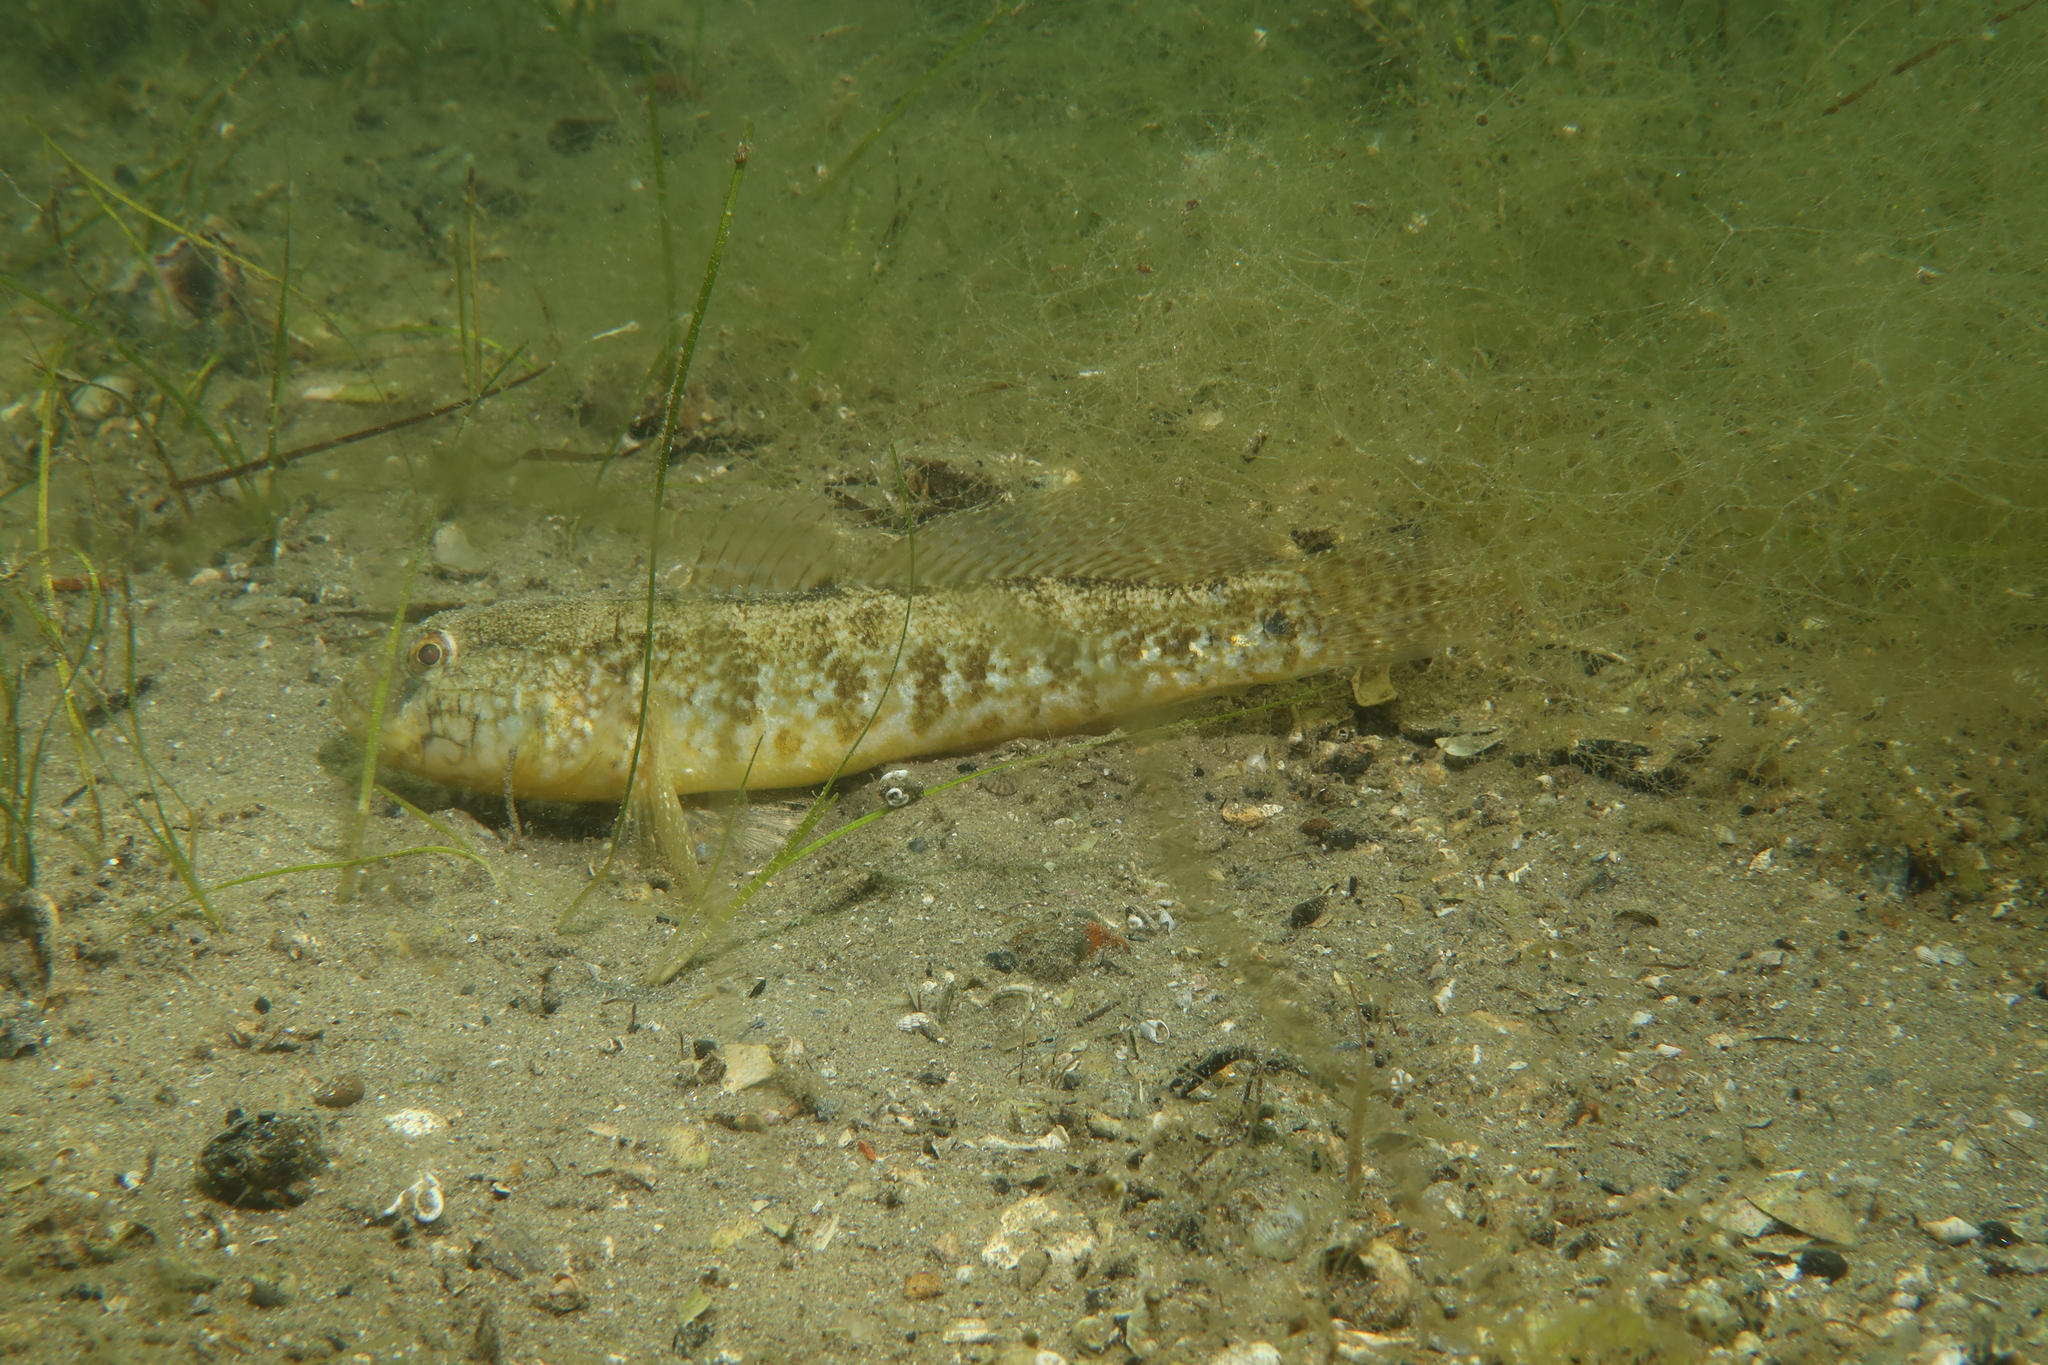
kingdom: Animalia
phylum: Chordata
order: Perciformes
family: Gobiidae
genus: Zosterisessor
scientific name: Zosterisessor ophiocephalus
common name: Grass goby
